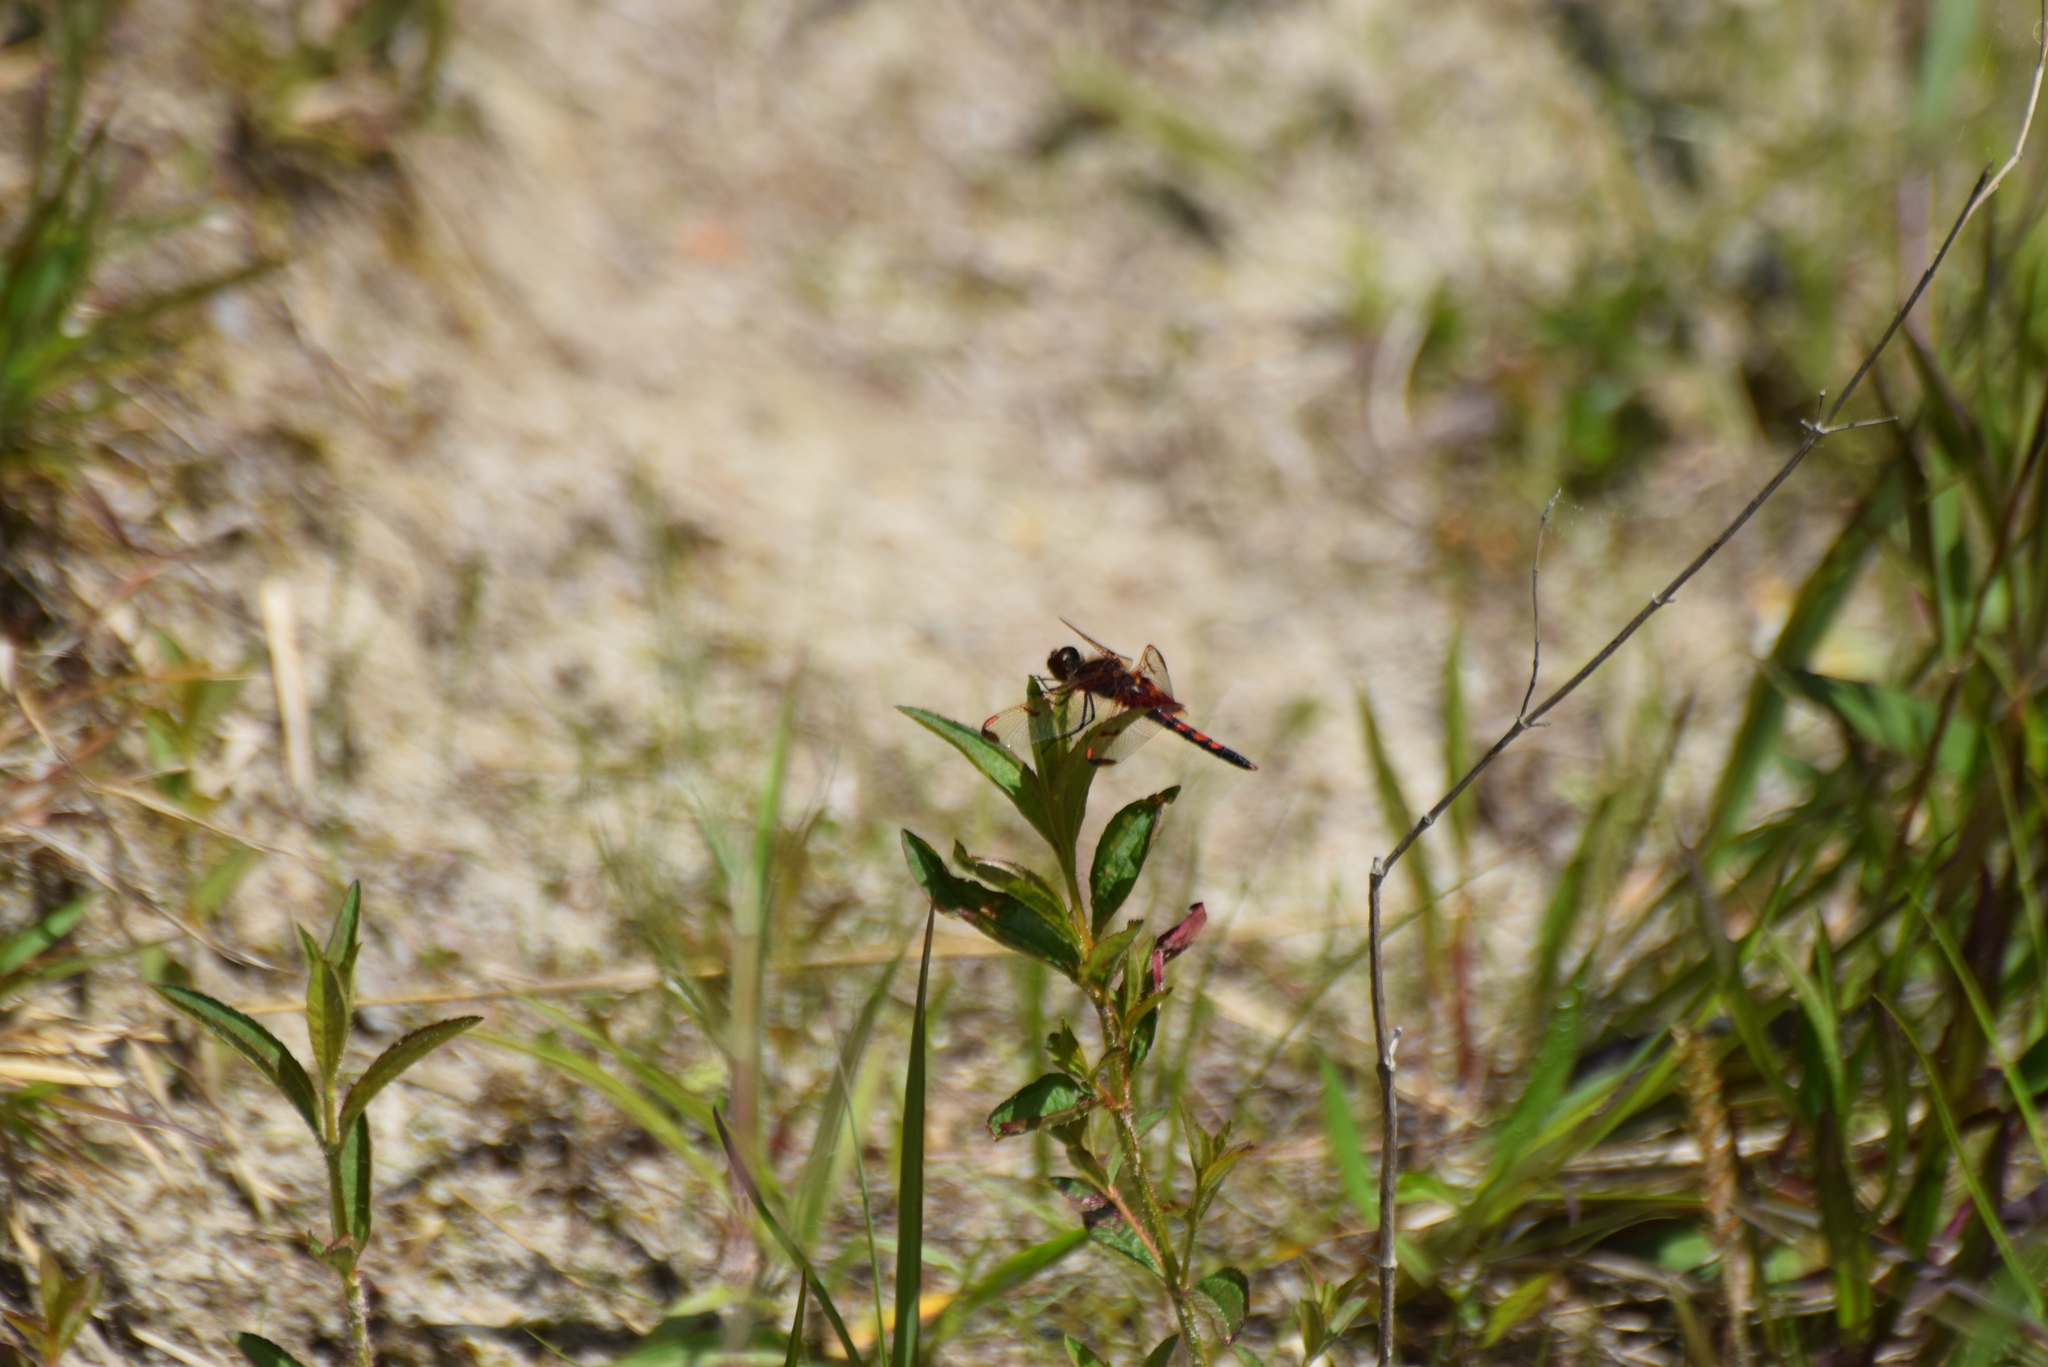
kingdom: Animalia
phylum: Arthropoda
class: Insecta
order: Odonata
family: Libellulidae
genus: Celithemis
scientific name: Celithemis elisa
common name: Calico pennant
